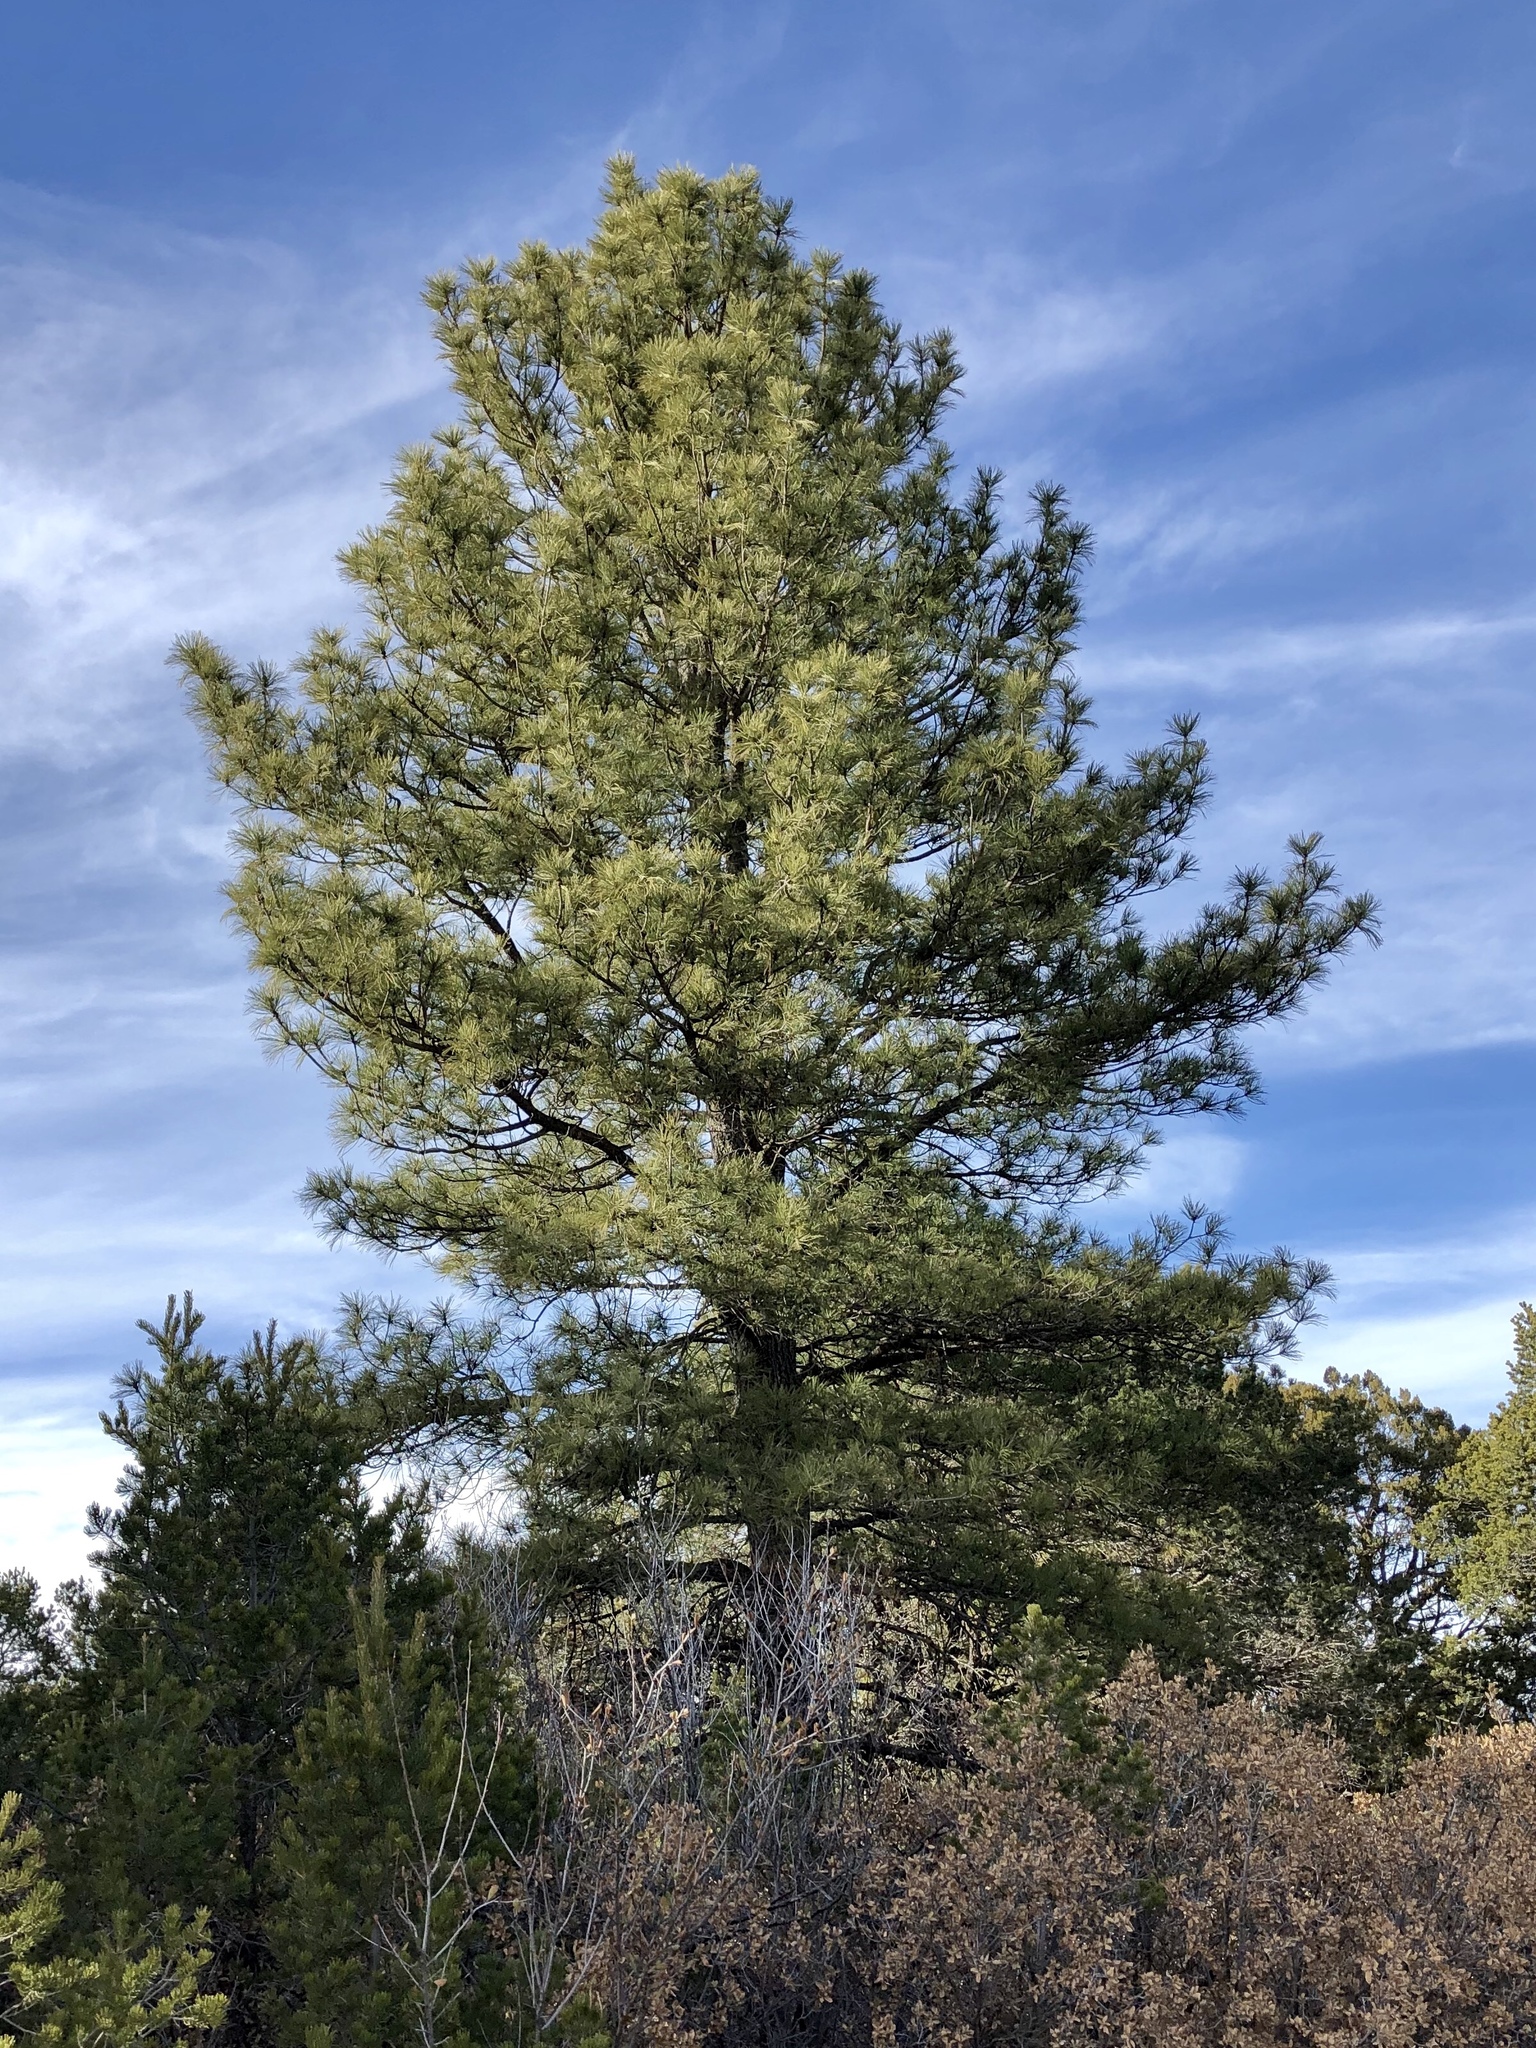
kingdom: Plantae
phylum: Tracheophyta
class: Pinopsida
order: Pinales
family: Pinaceae
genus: Pinus
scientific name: Pinus ponderosa
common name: Western yellow-pine
